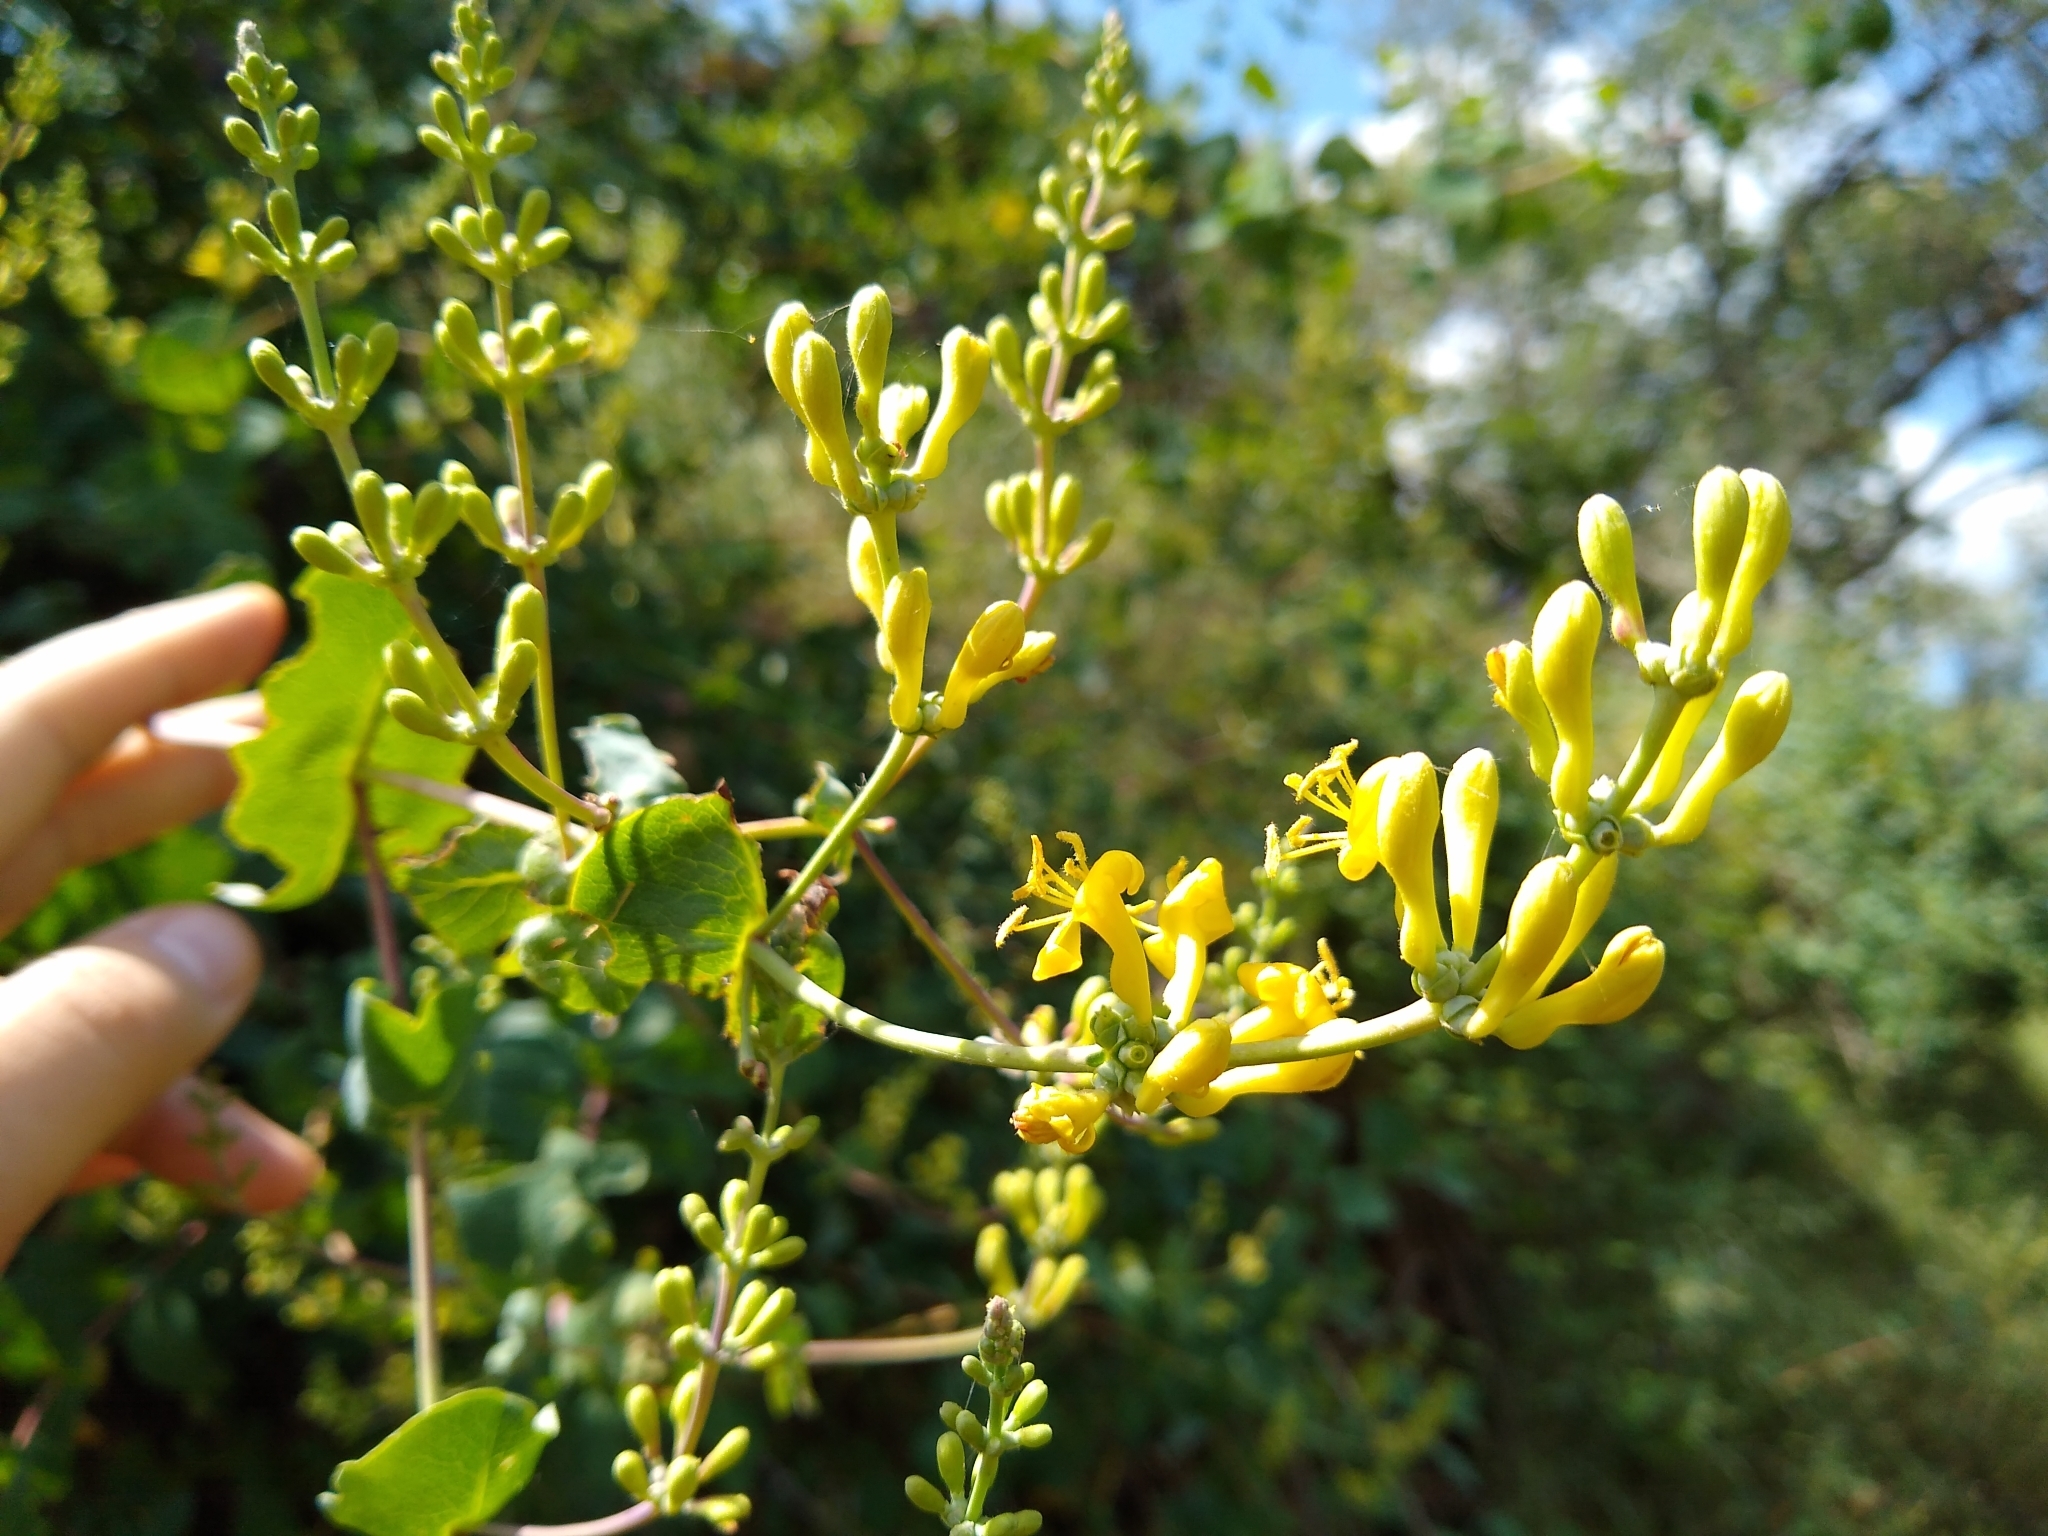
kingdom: Plantae
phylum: Tracheophyta
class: Magnoliopsida
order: Dipsacales
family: Caprifoliaceae
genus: Lonicera
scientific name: Lonicera interrupta
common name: Chaparral honeysuckle
